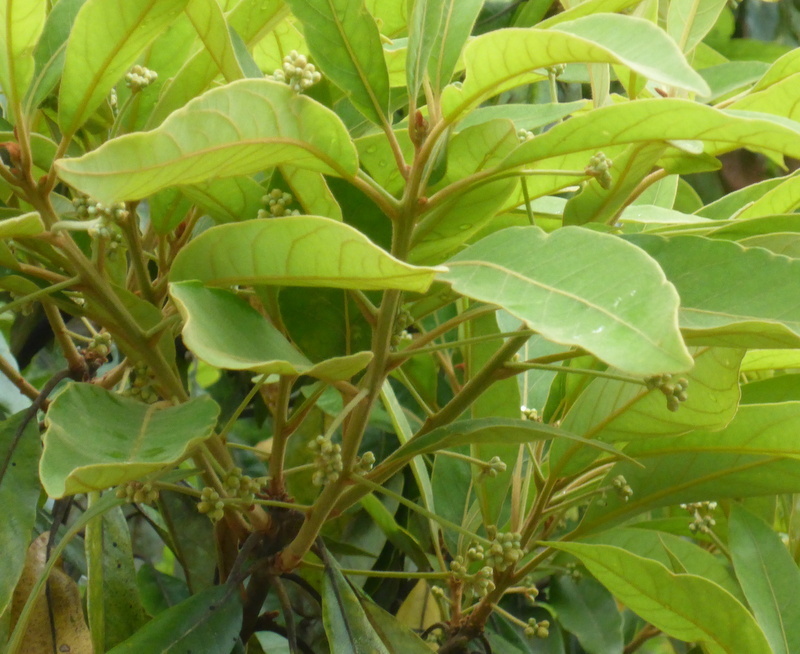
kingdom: Plantae
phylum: Tracheophyta
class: Magnoliopsida
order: Laurales
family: Lauraceae
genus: Persea
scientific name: Persea palustris
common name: Swampbay
